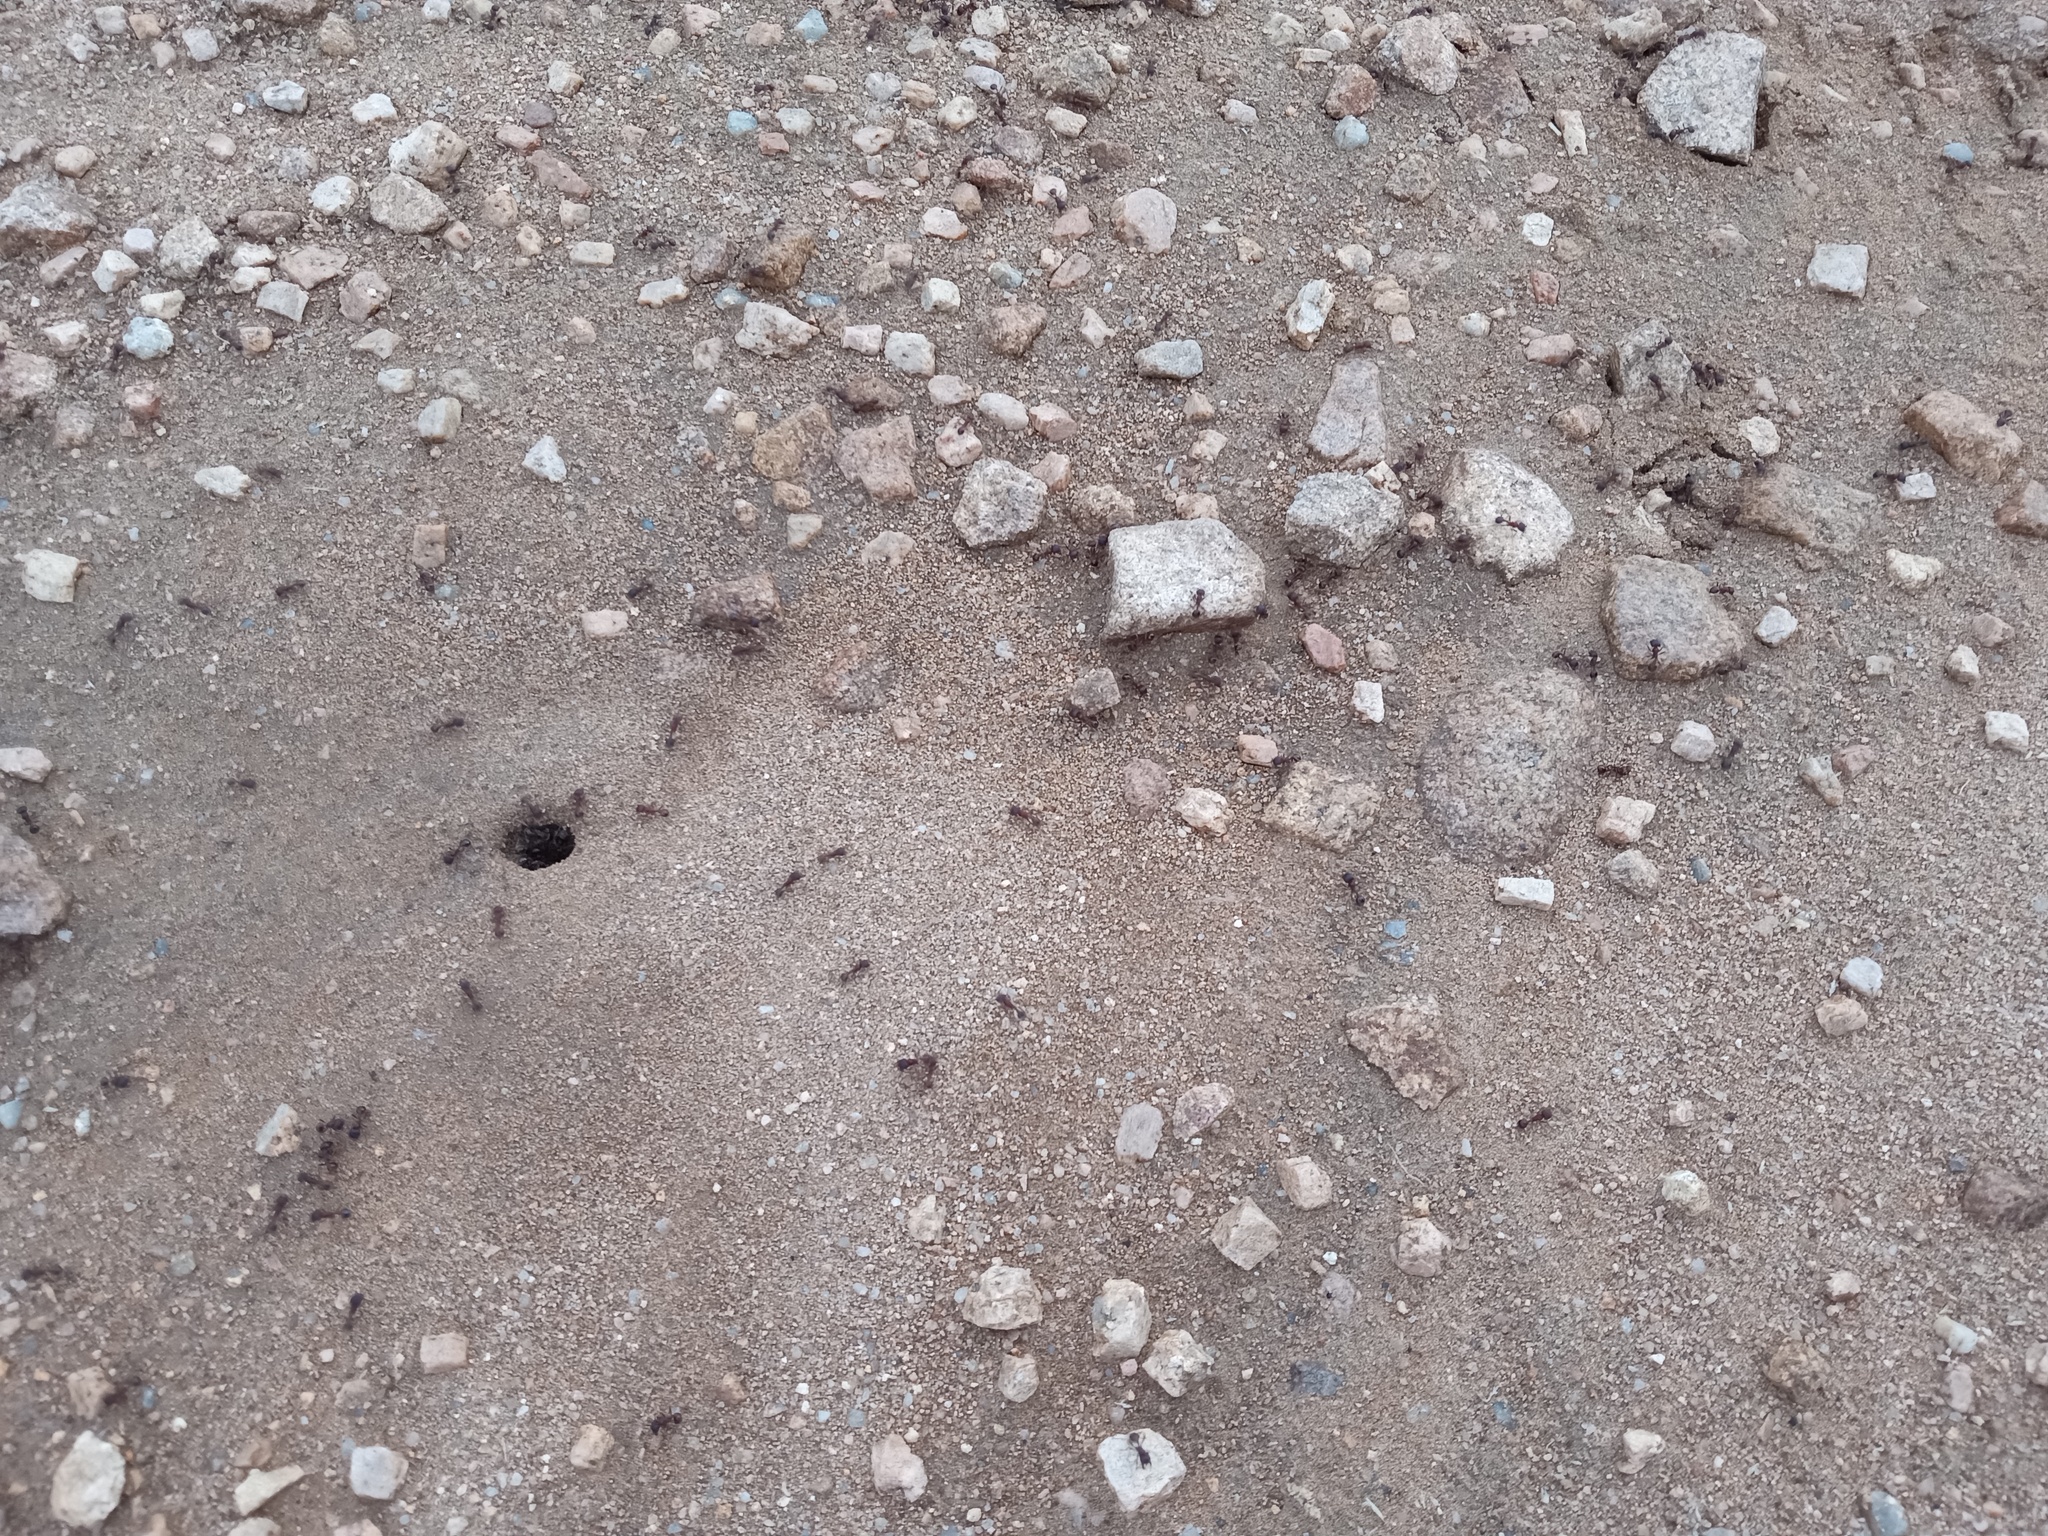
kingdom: Animalia
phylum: Arthropoda
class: Insecta
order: Hymenoptera
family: Formicidae
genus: Pogonomyrmex
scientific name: Pogonomyrmex rugosus
